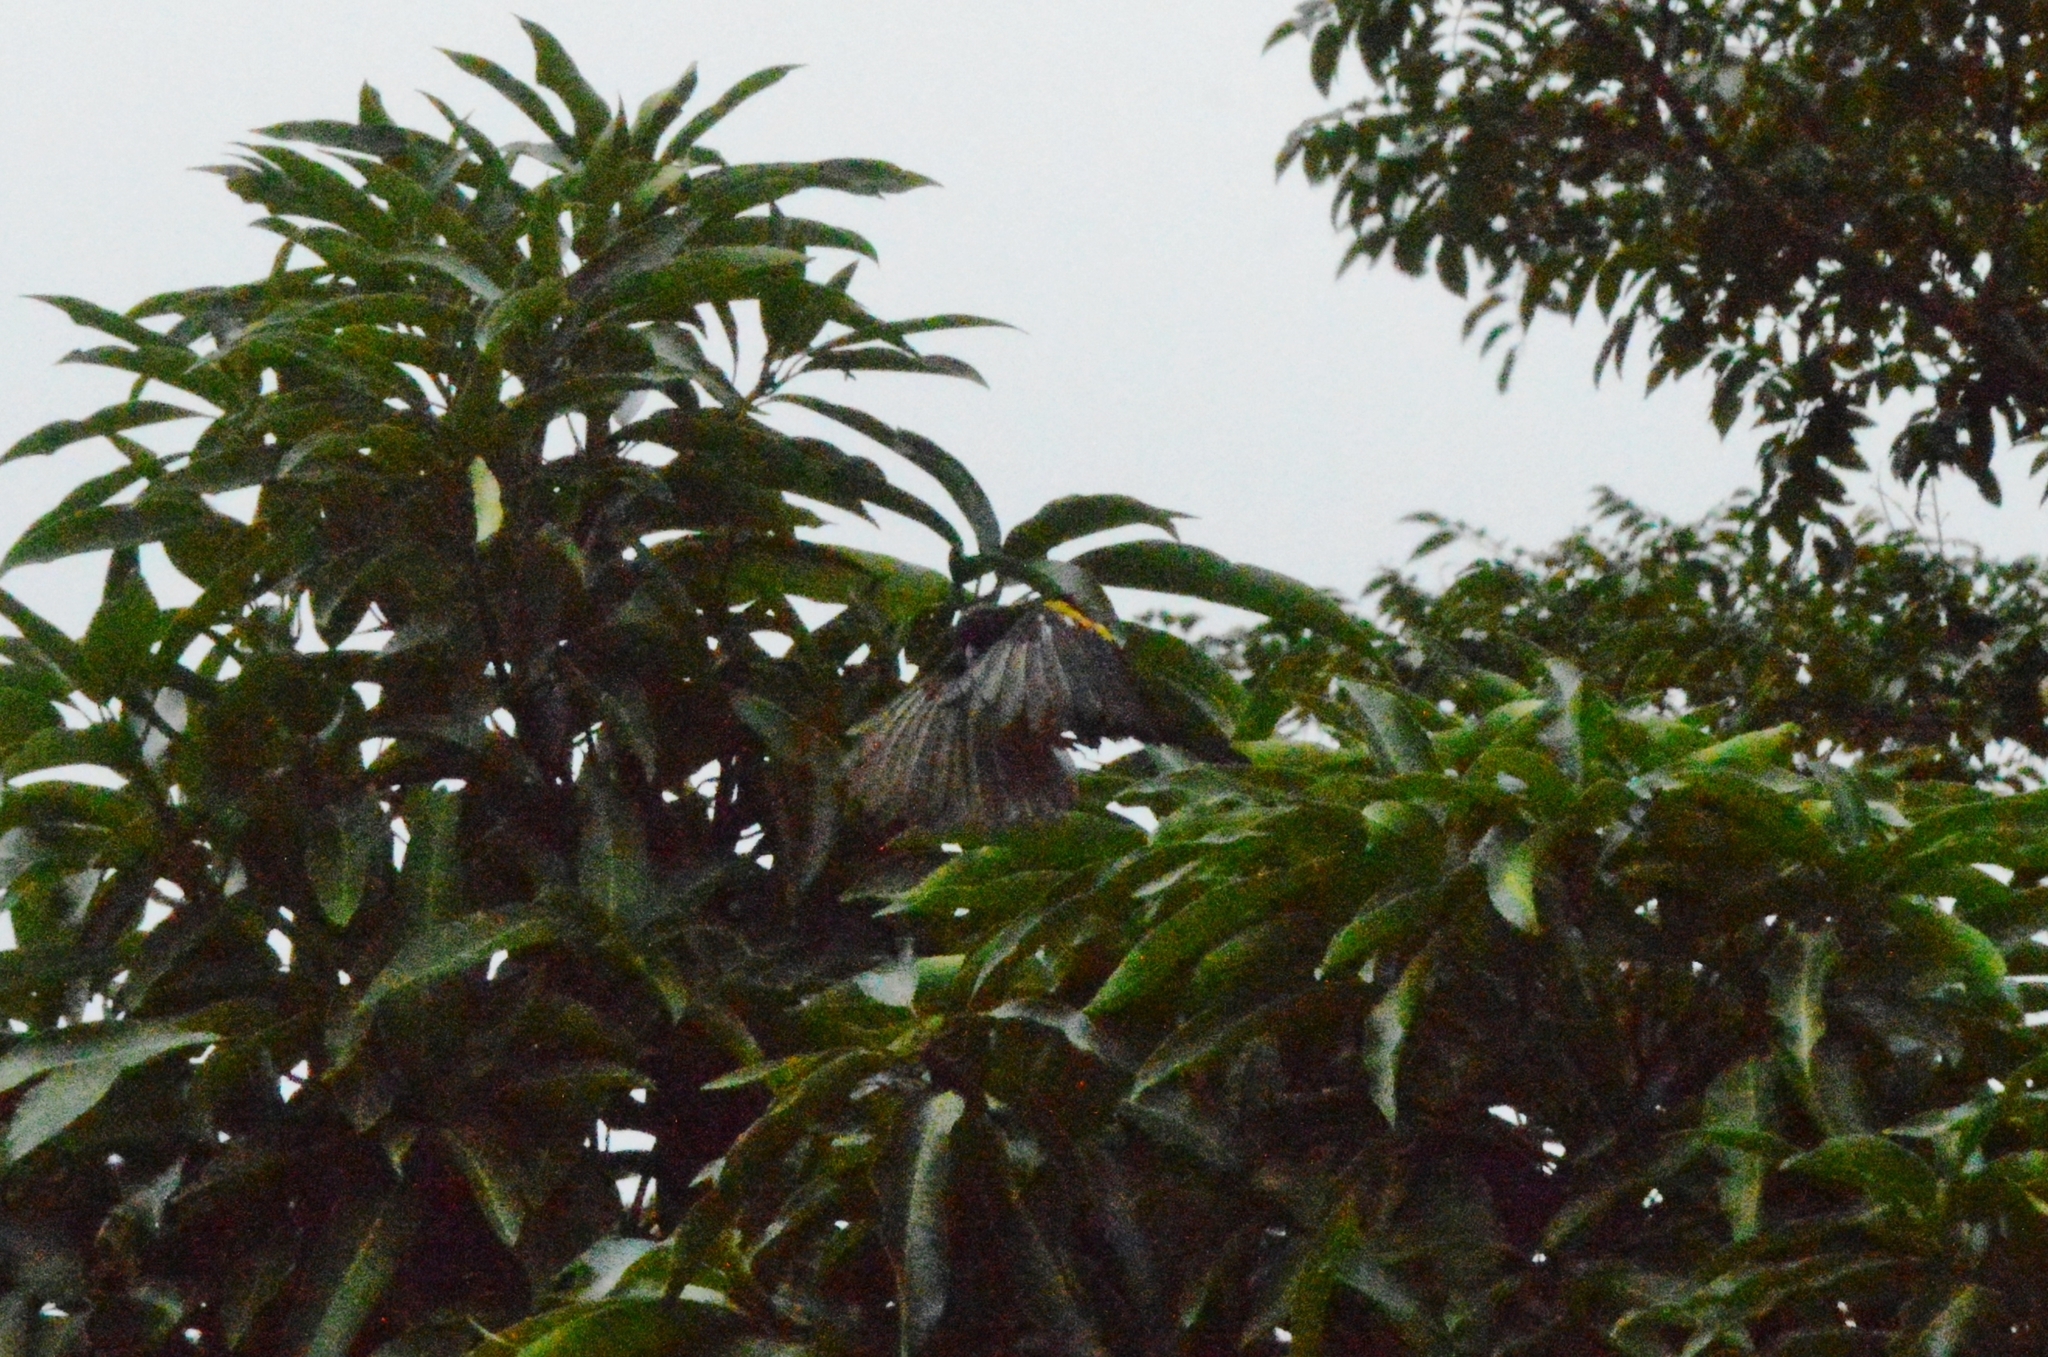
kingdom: Animalia
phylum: Chordata
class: Aves
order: Passeriformes
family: Icteridae
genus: Icterus
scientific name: Icterus cayanensis
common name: Epaulet oriole
